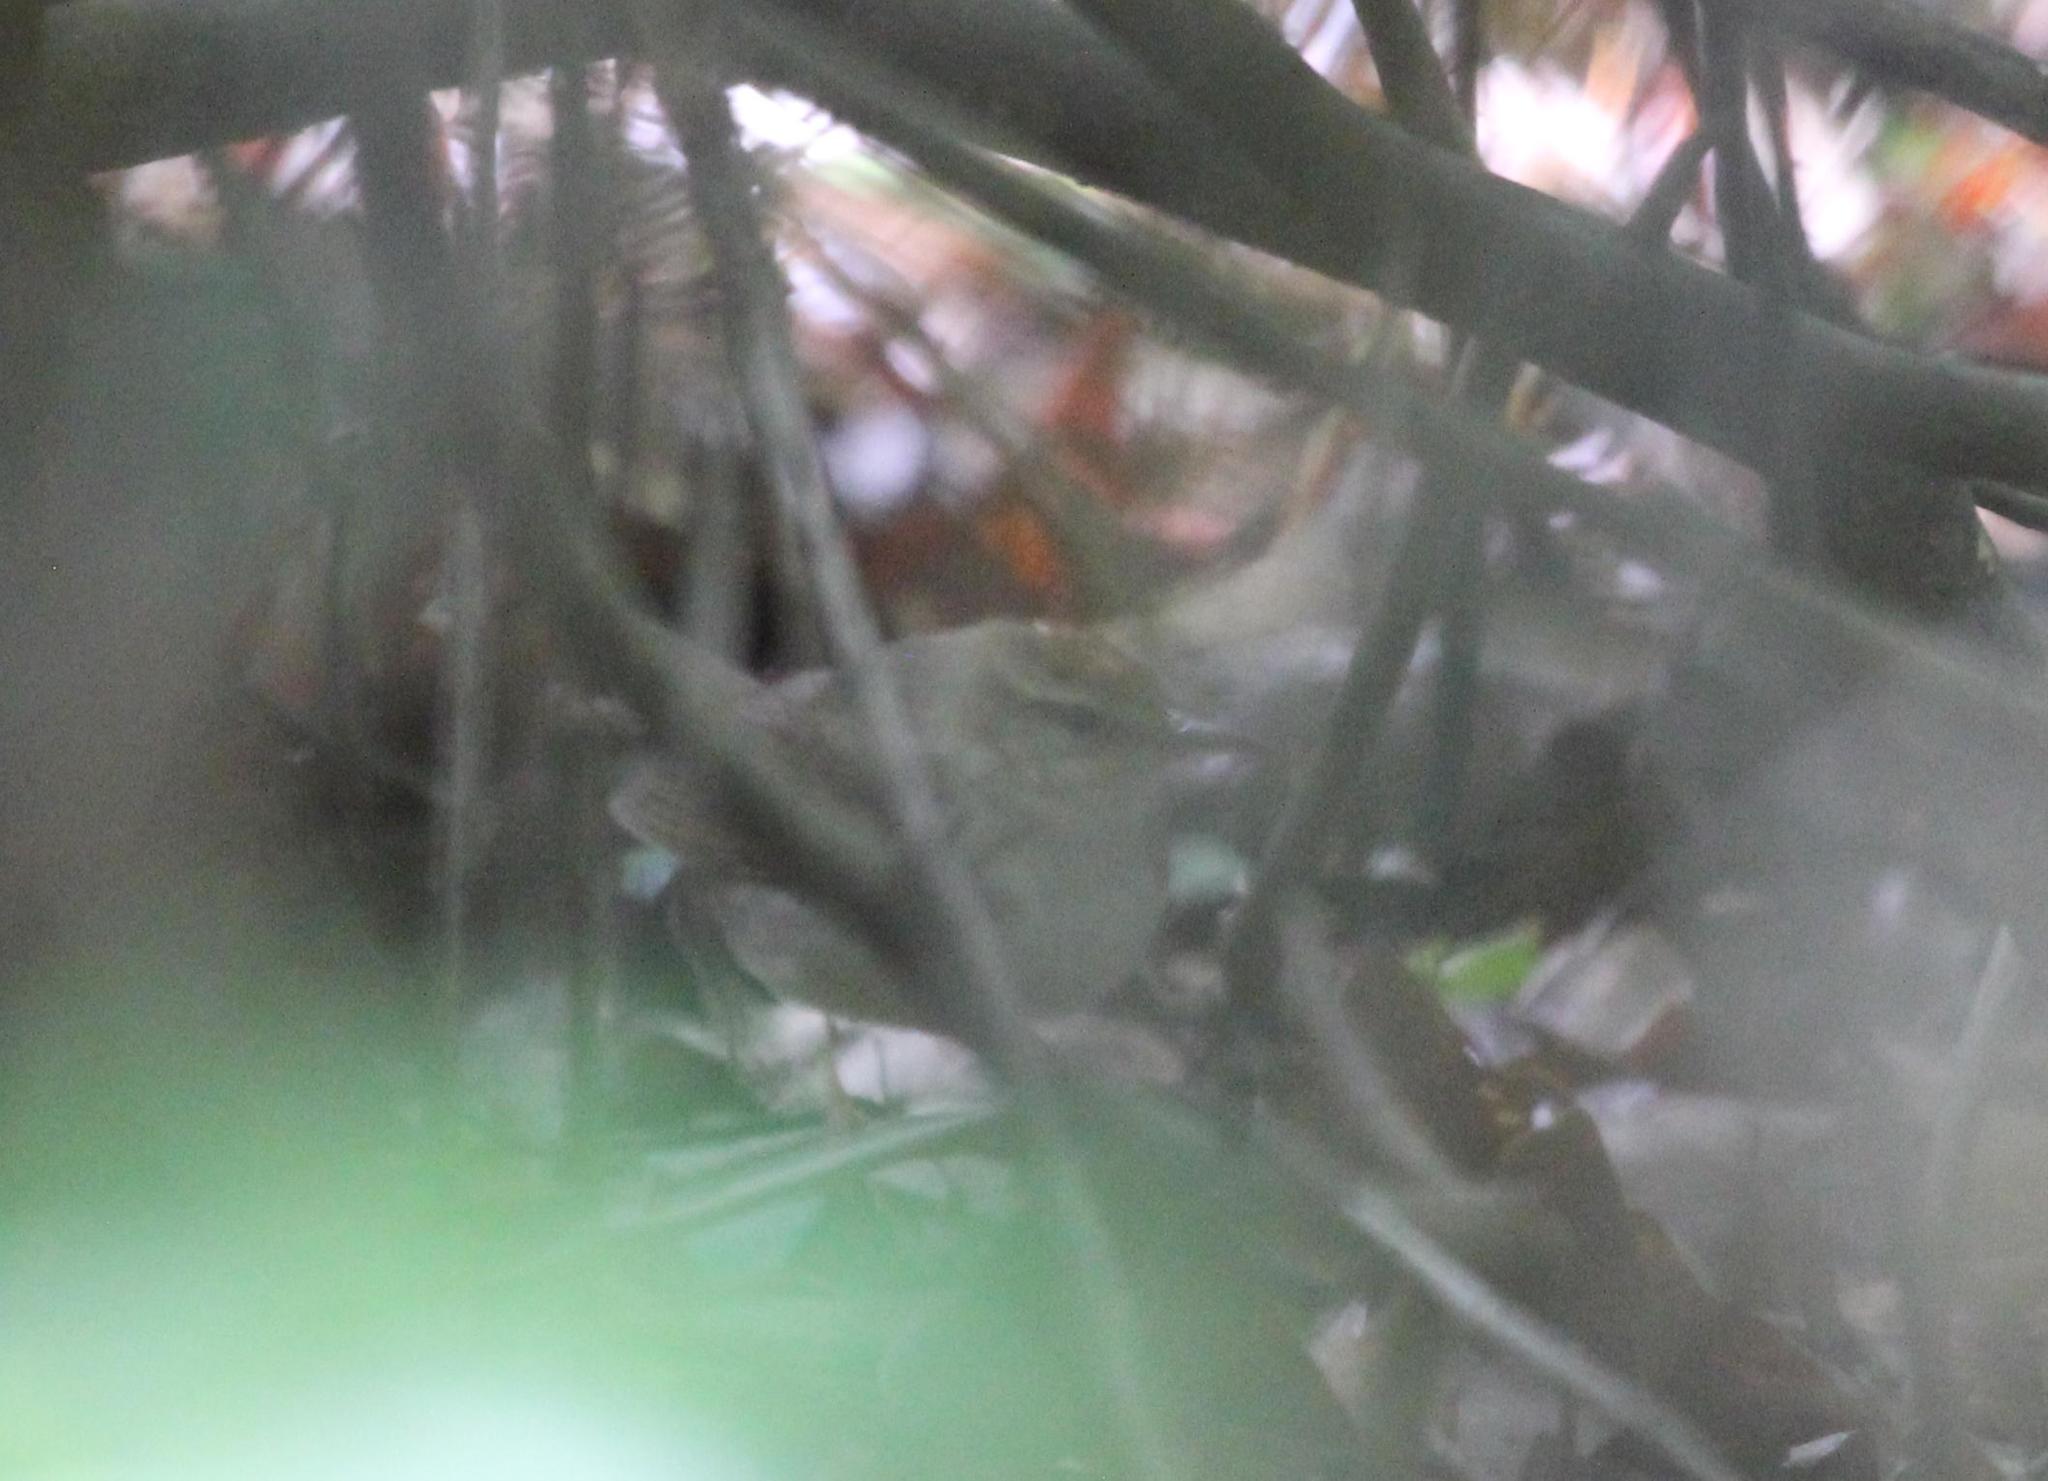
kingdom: Animalia
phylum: Chordata
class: Aves
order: Passeriformes
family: Parulidae
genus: Limnothlypis
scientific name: Limnothlypis swainsonii
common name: Swainson's warbler
